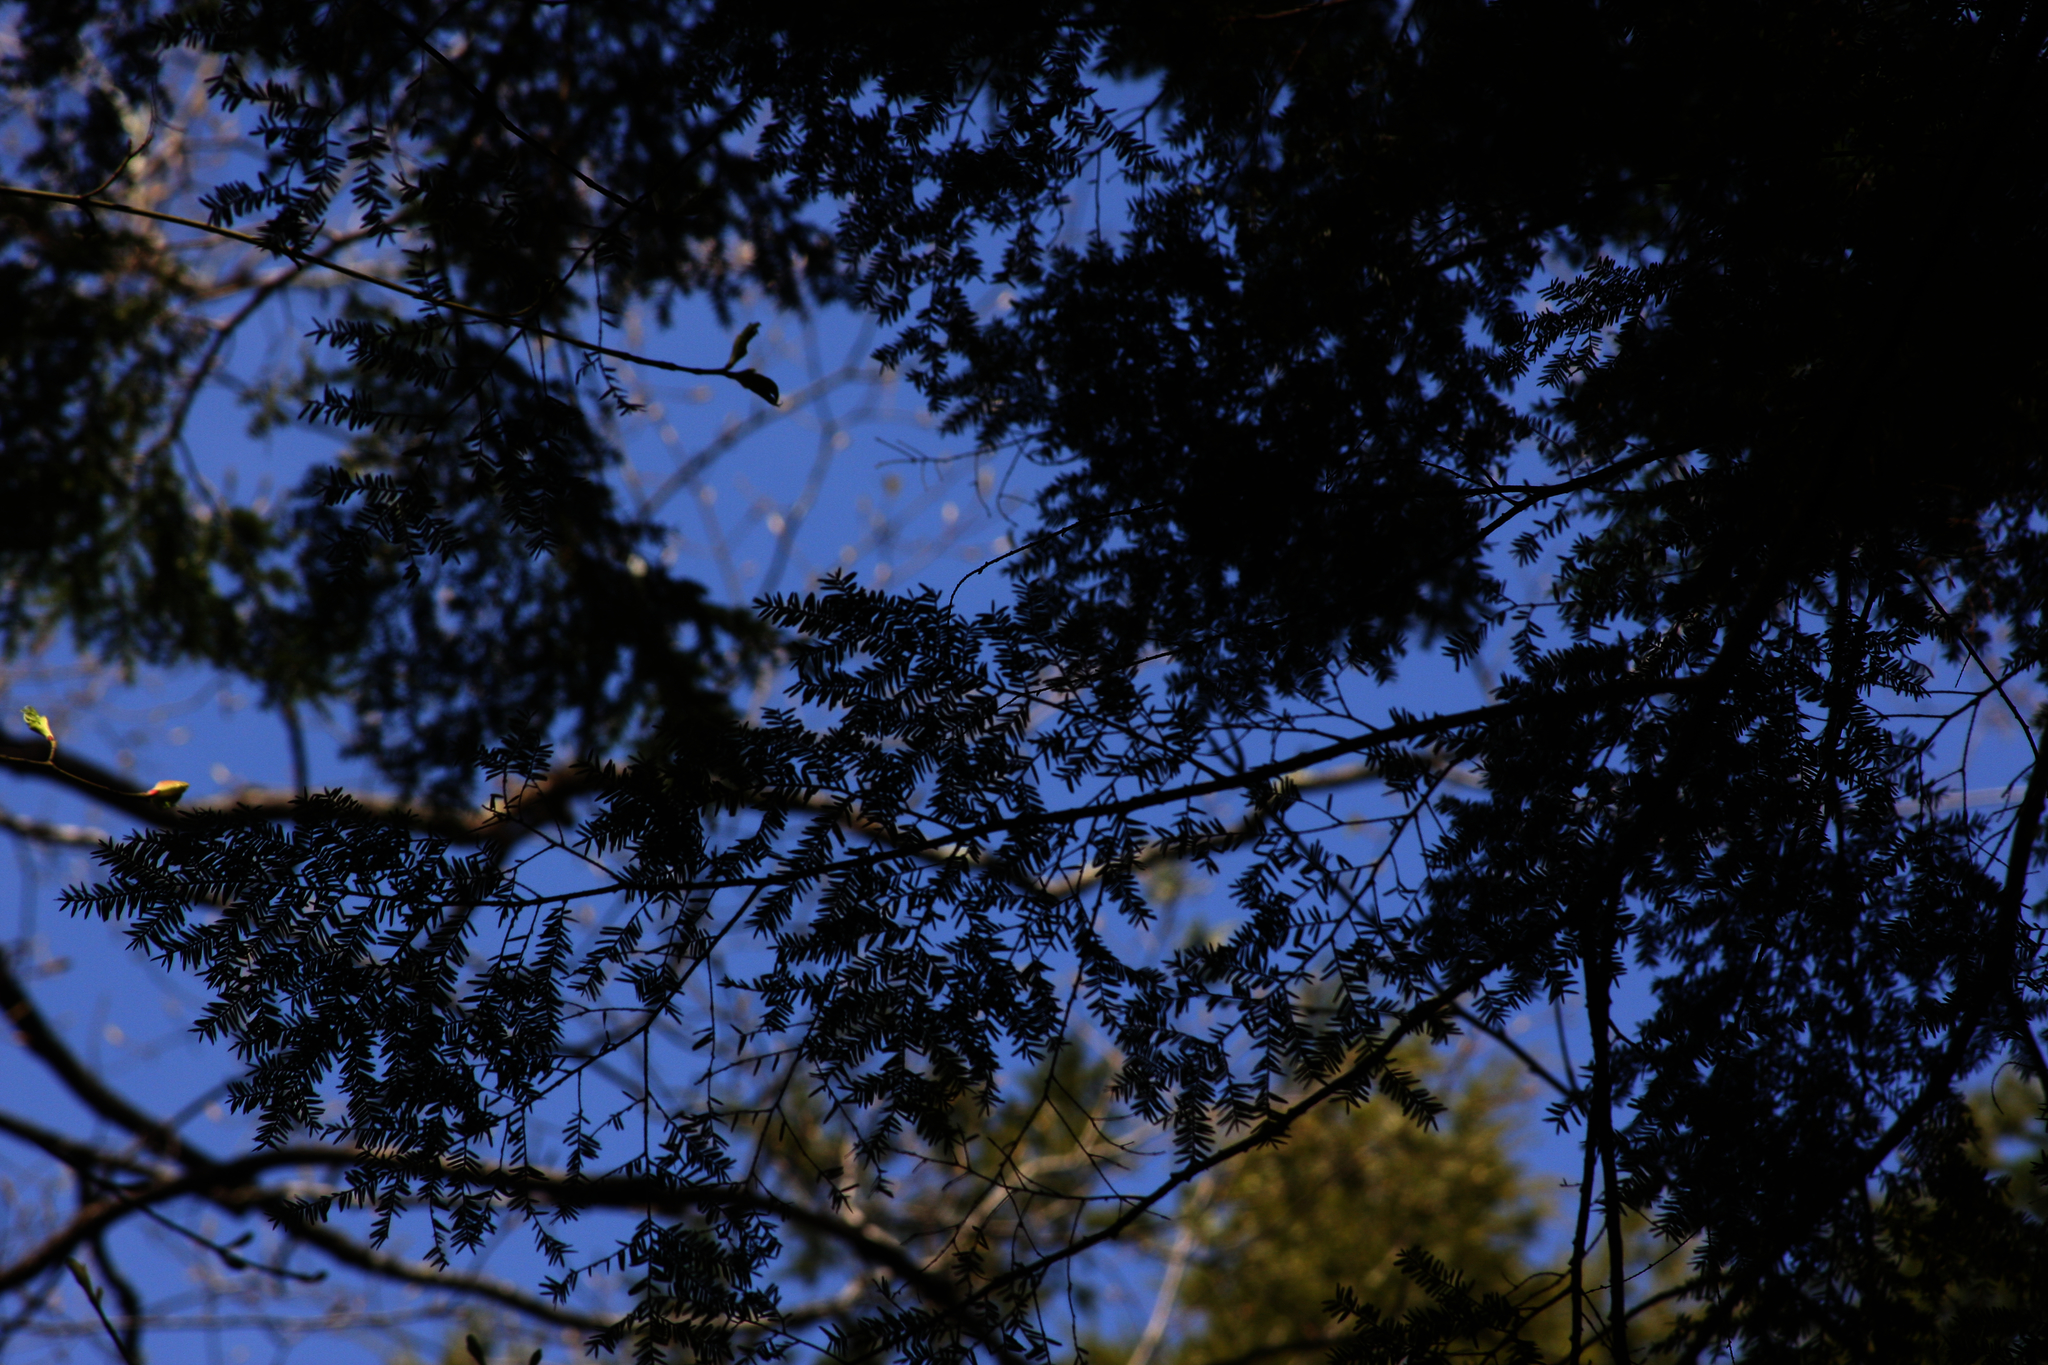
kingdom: Plantae
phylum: Tracheophyta
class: Pinopsida
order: Pinales
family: Pinaceae
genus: Tsuga
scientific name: Tsuga canadensis
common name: Eastern hemlock
